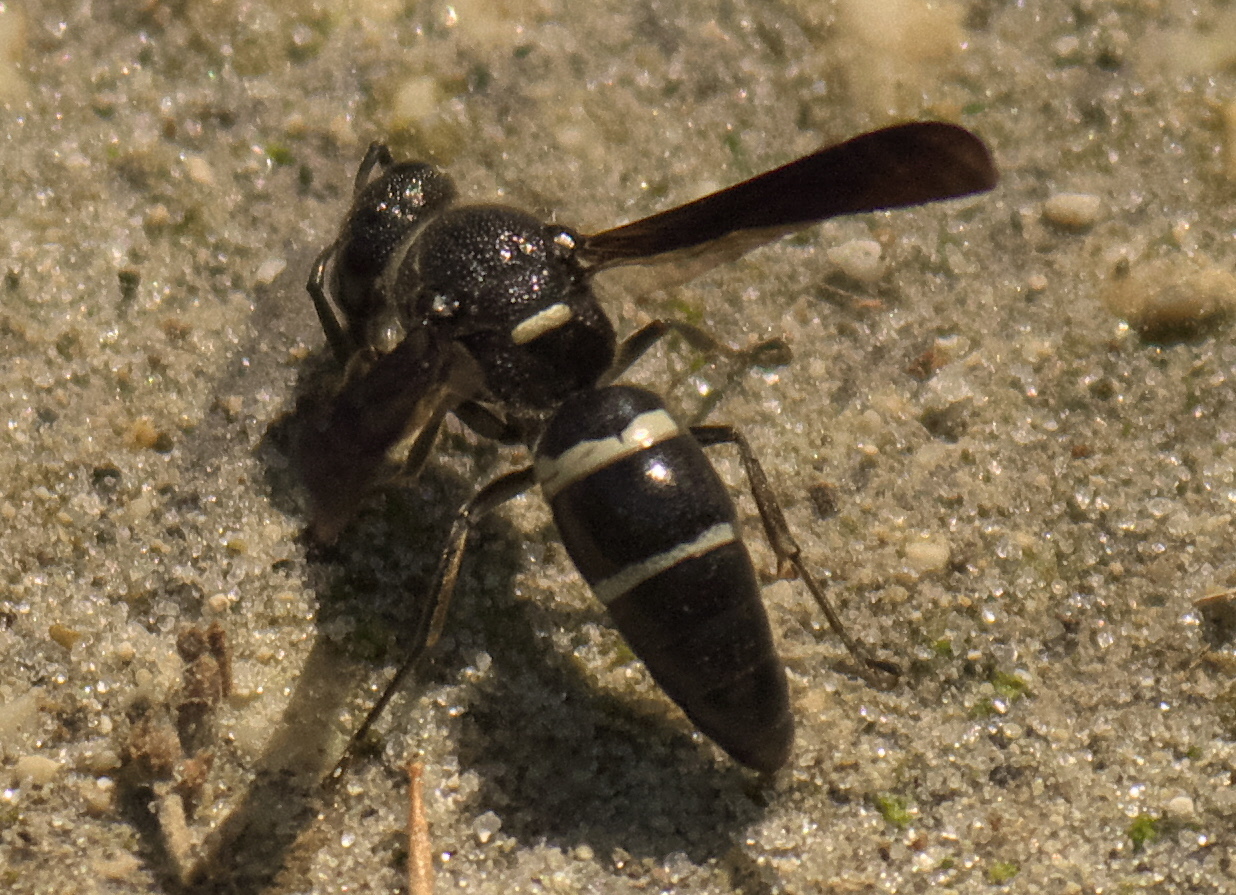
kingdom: Animalia
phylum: Arthropoda
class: Insecta
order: Hymenoptera
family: Eumenidae
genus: Euodynerus
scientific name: Euodynerus megaera
